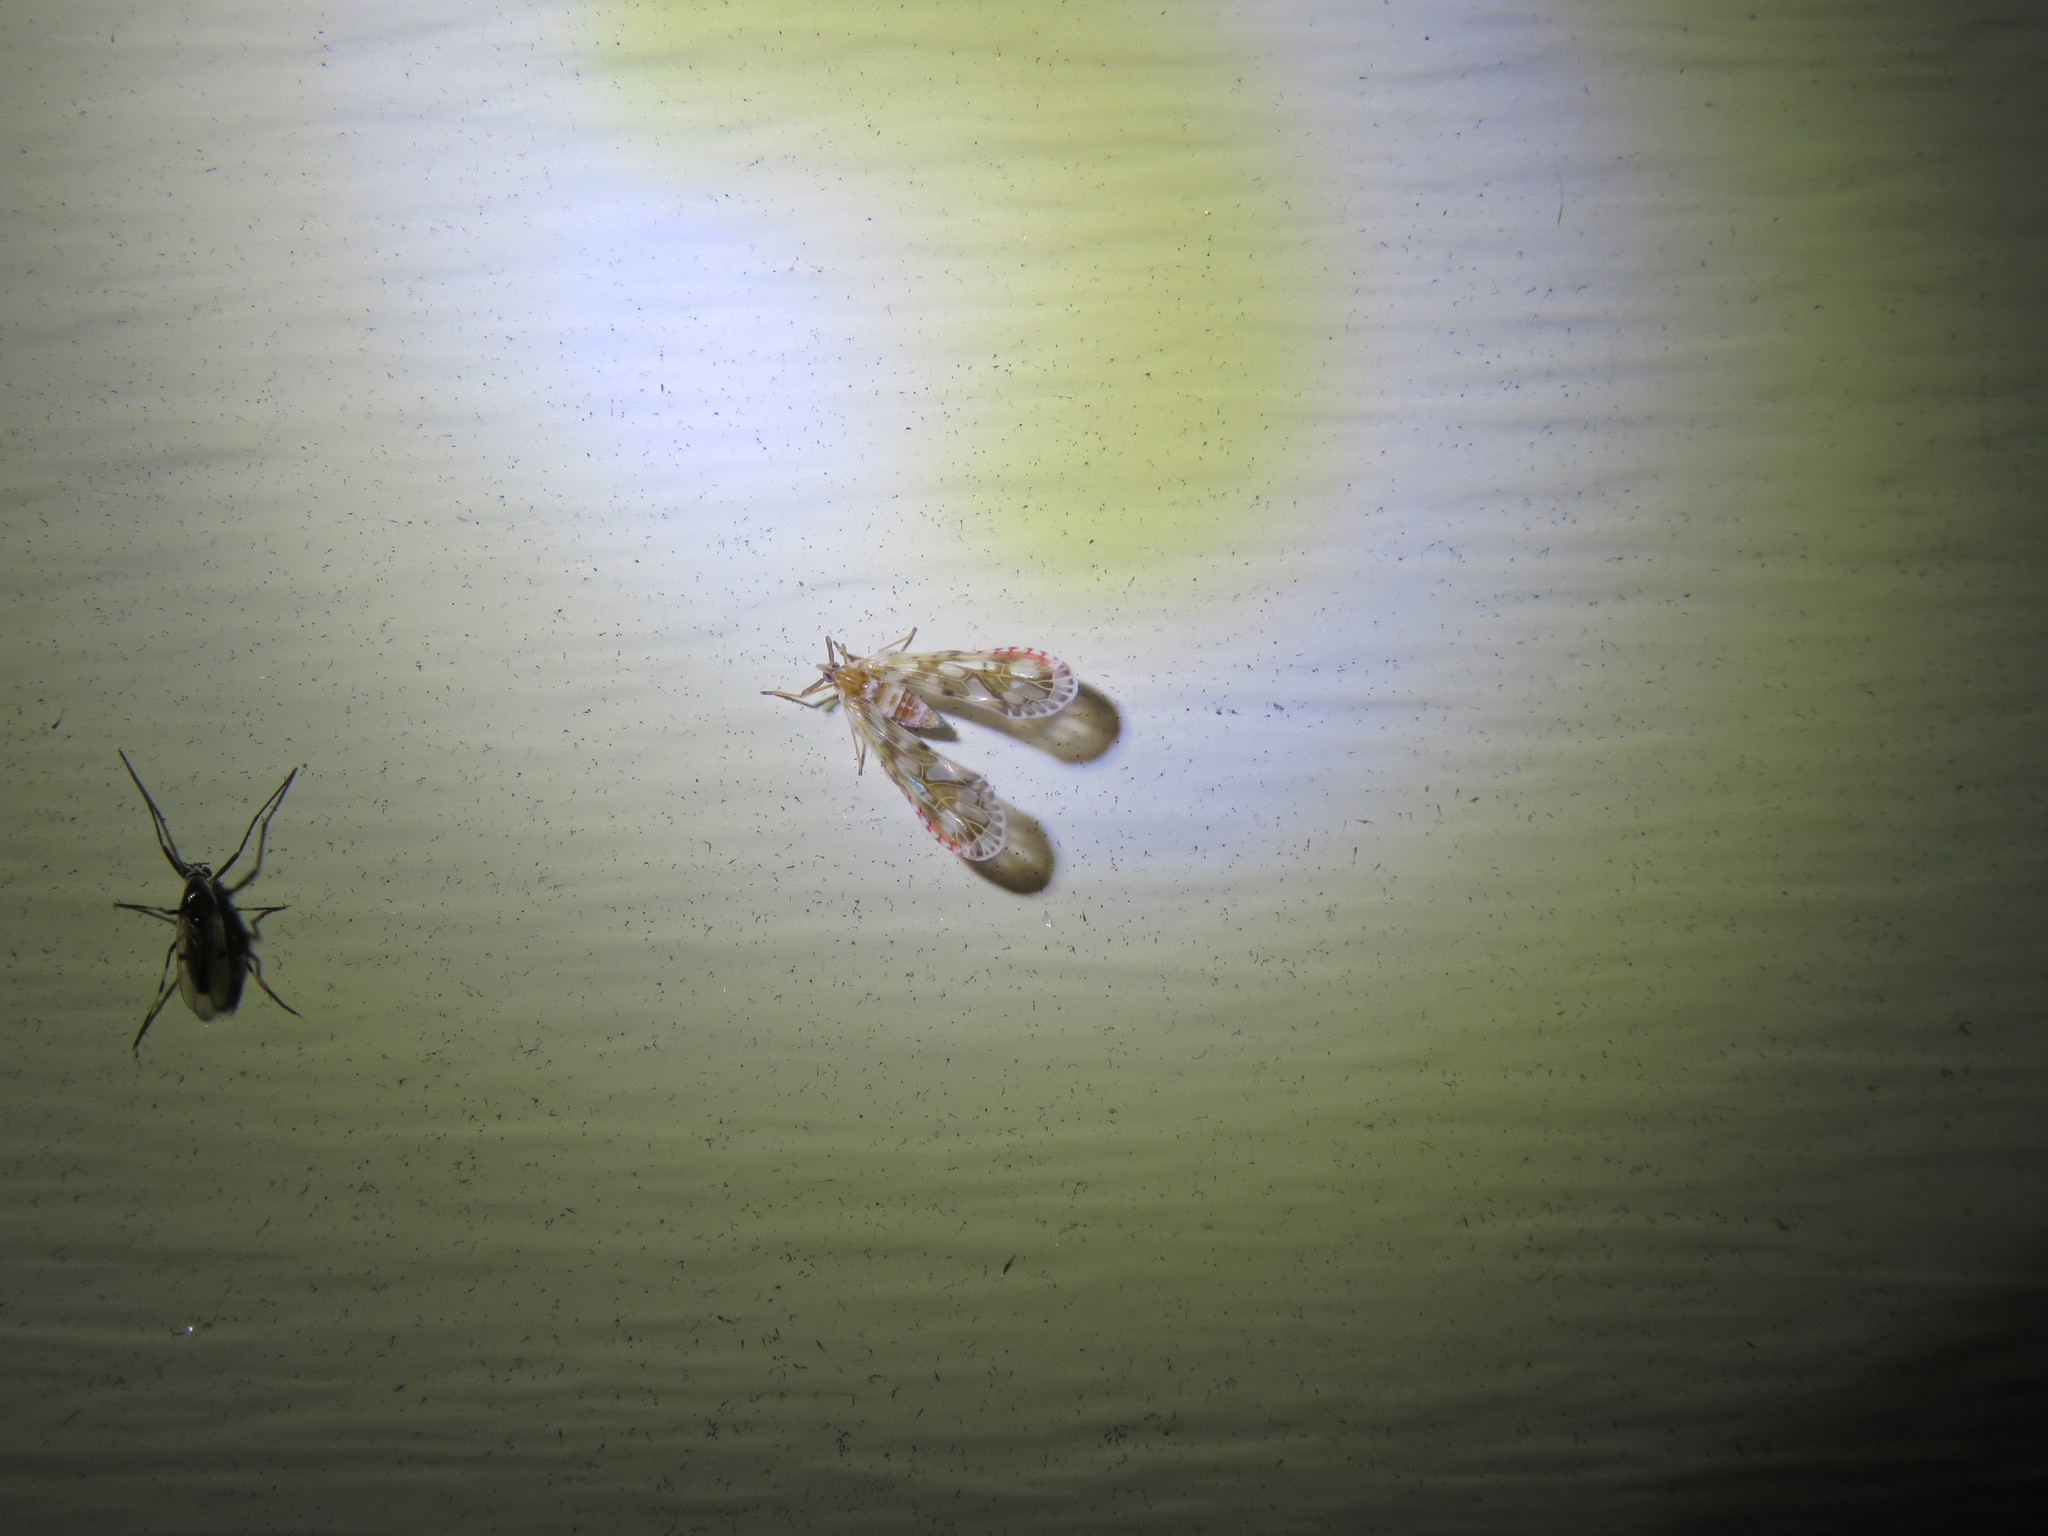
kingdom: Animalia
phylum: Arthropoda
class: Insecta
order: Hemiptera
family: Derbidae
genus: Anotia
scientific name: Anotia kirkaldyi
